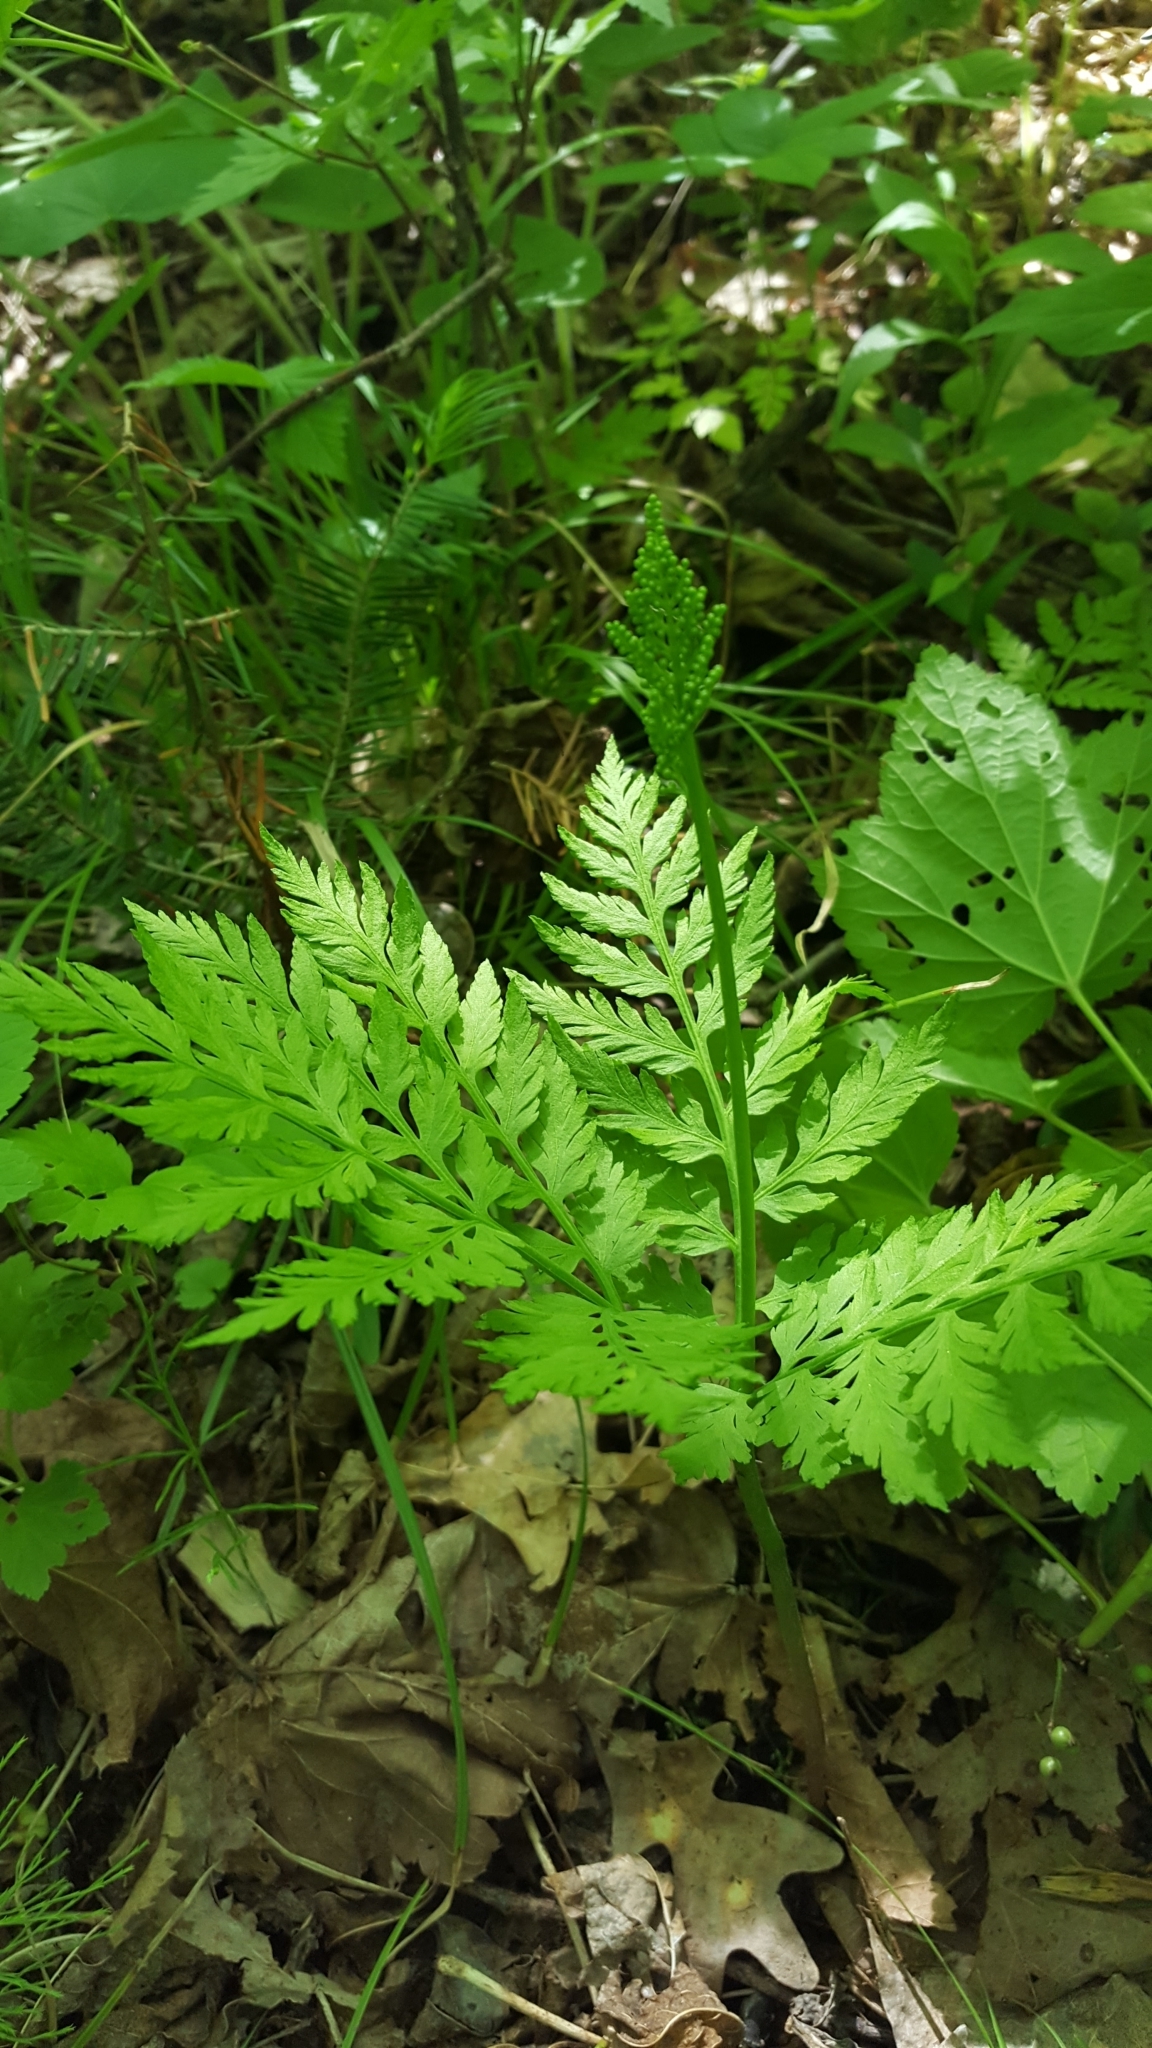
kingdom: Plantae
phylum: Tracheophyta
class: Polypodiopsida
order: Ophioglossales
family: Ophioglossaceae
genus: Botrypus
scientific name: Botrypus virginianus
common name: Common grapefern
